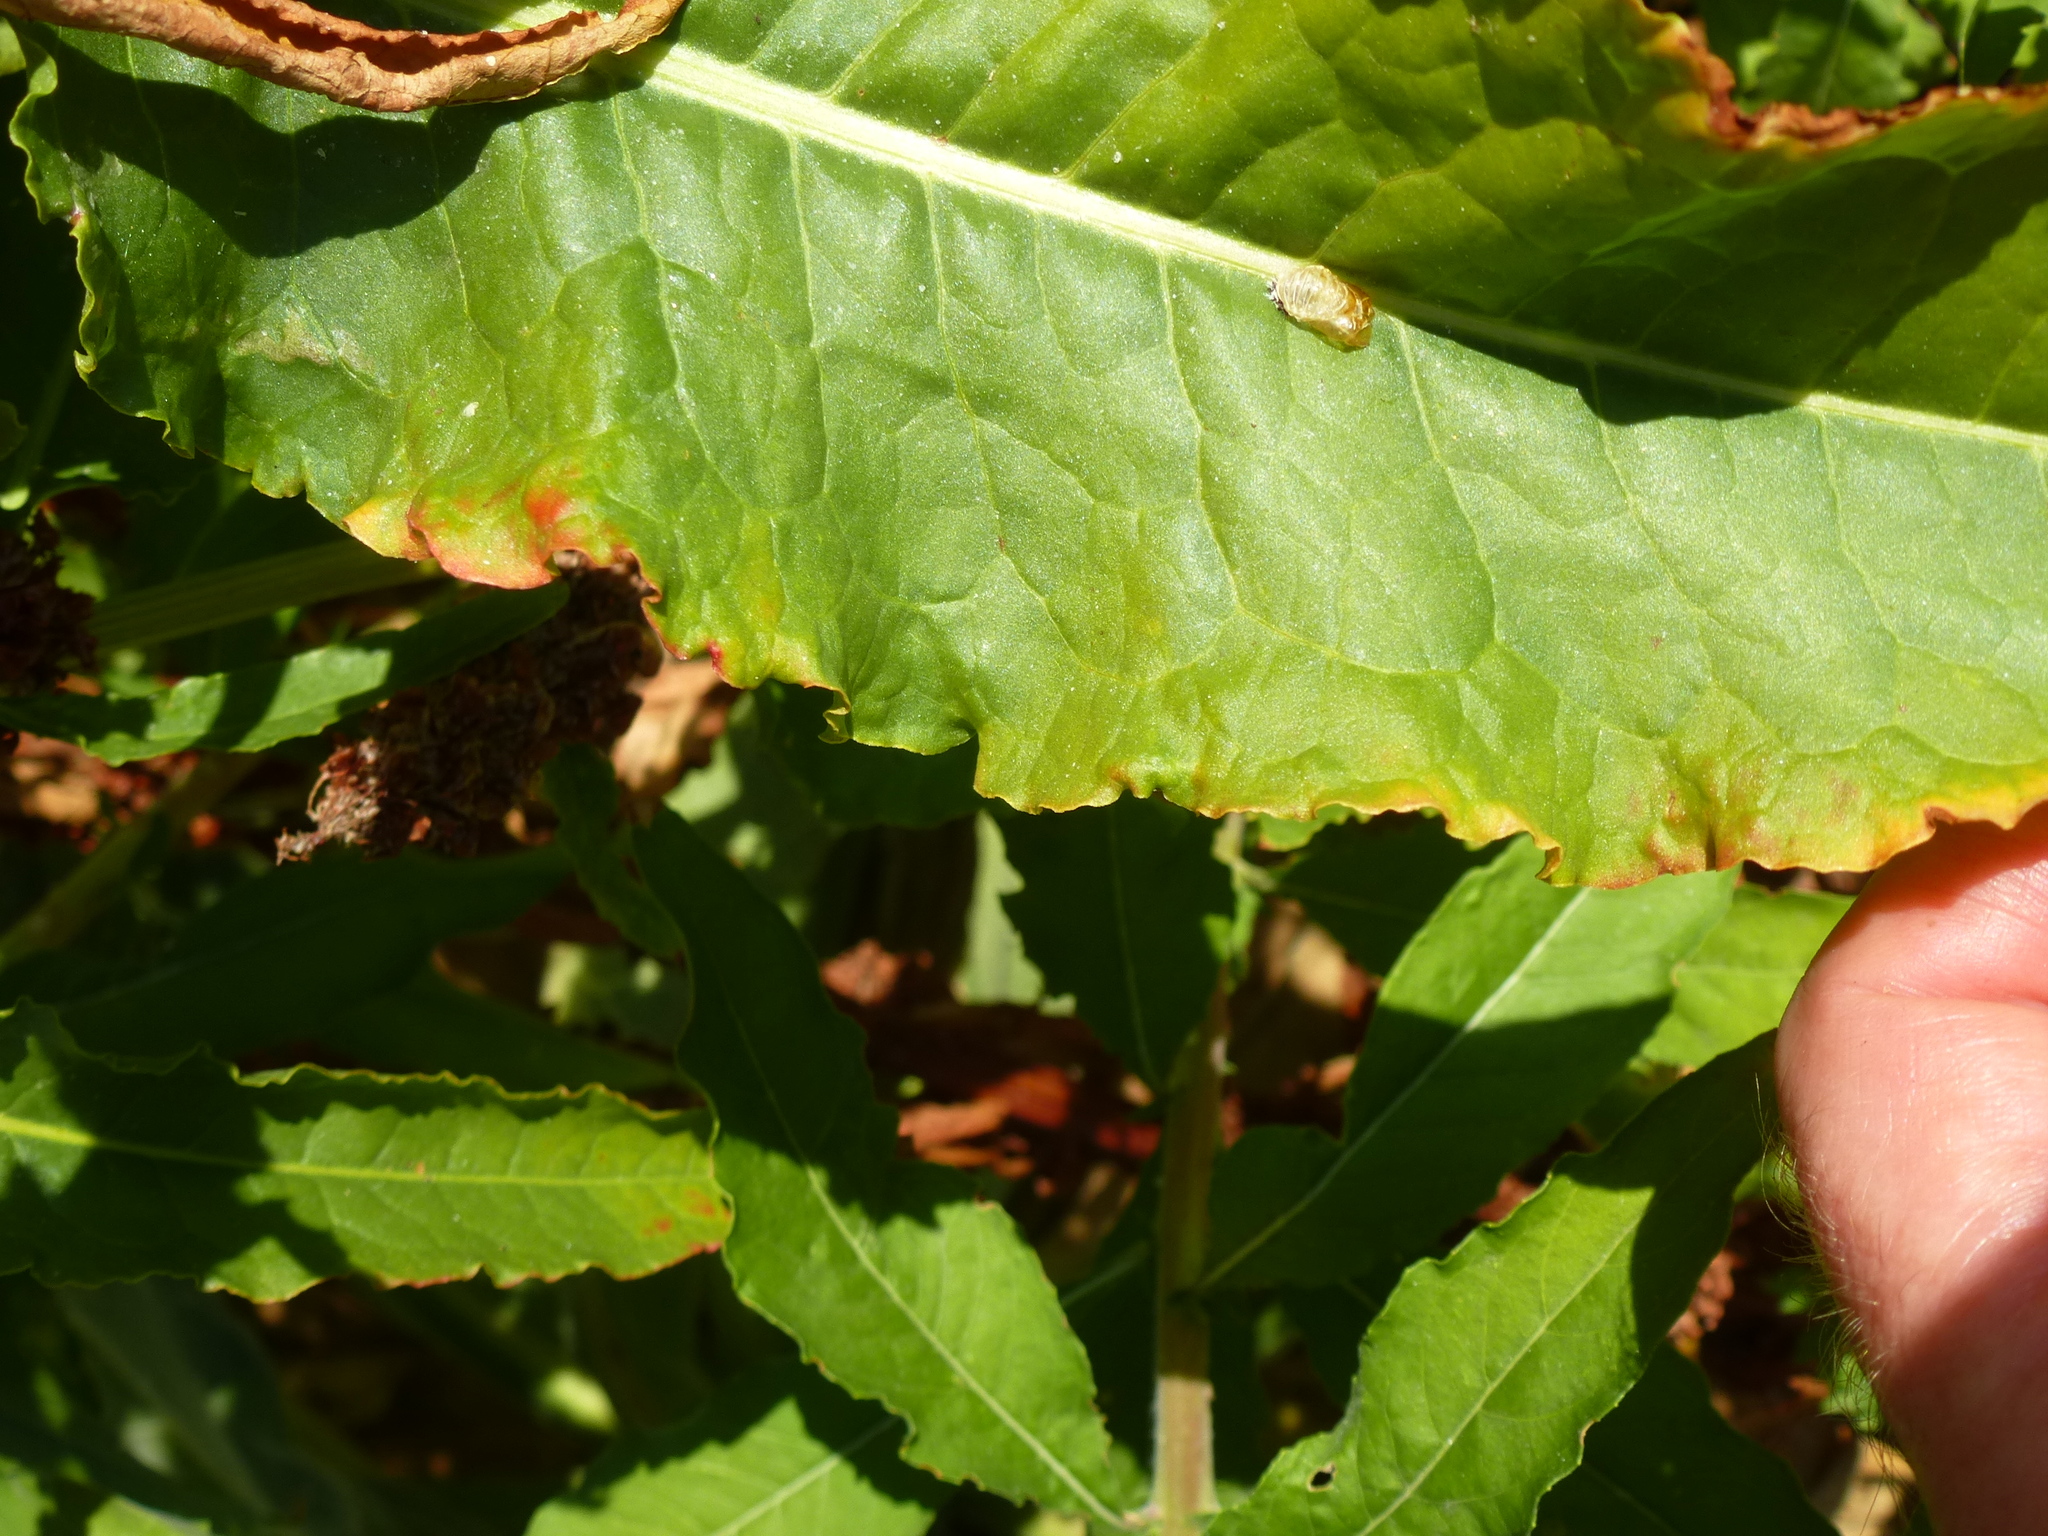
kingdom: Plantae
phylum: Tracheophyta
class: Magnoliopsida
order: Caryophyllales
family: Polygonaceae
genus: Rumex
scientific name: Rumex crispus
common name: Curled dock
